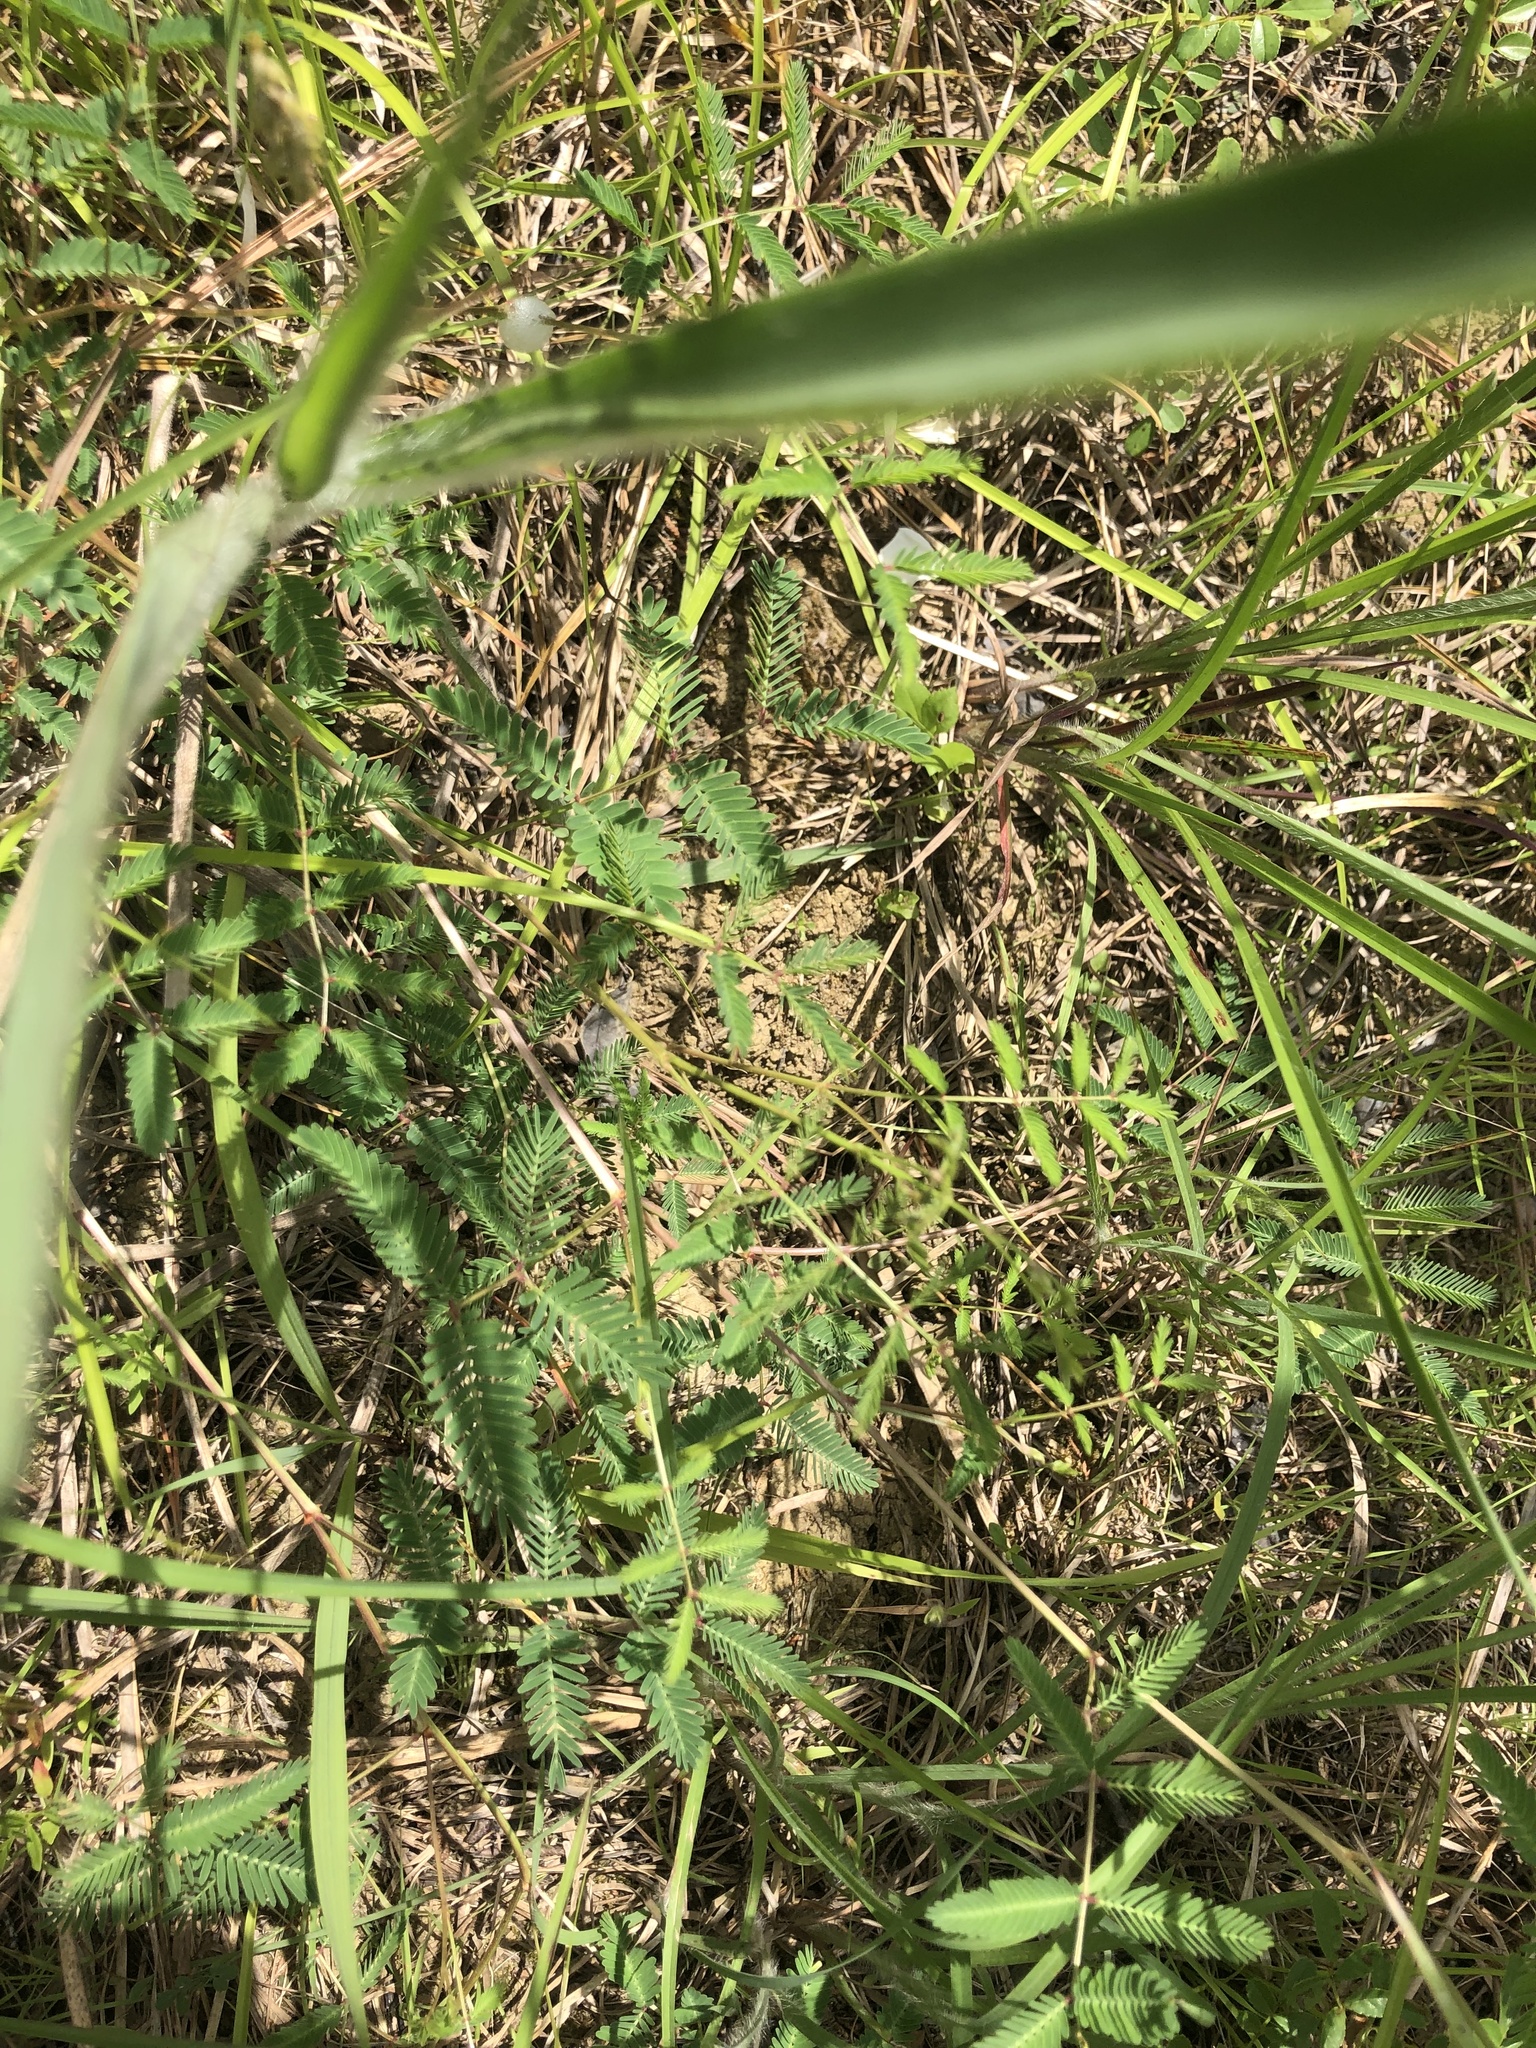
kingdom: Plantae
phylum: Tracheophyta
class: Magnoliopsida
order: Fabales
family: Fabaceae
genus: Neptunia
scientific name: Neptunia lutea
